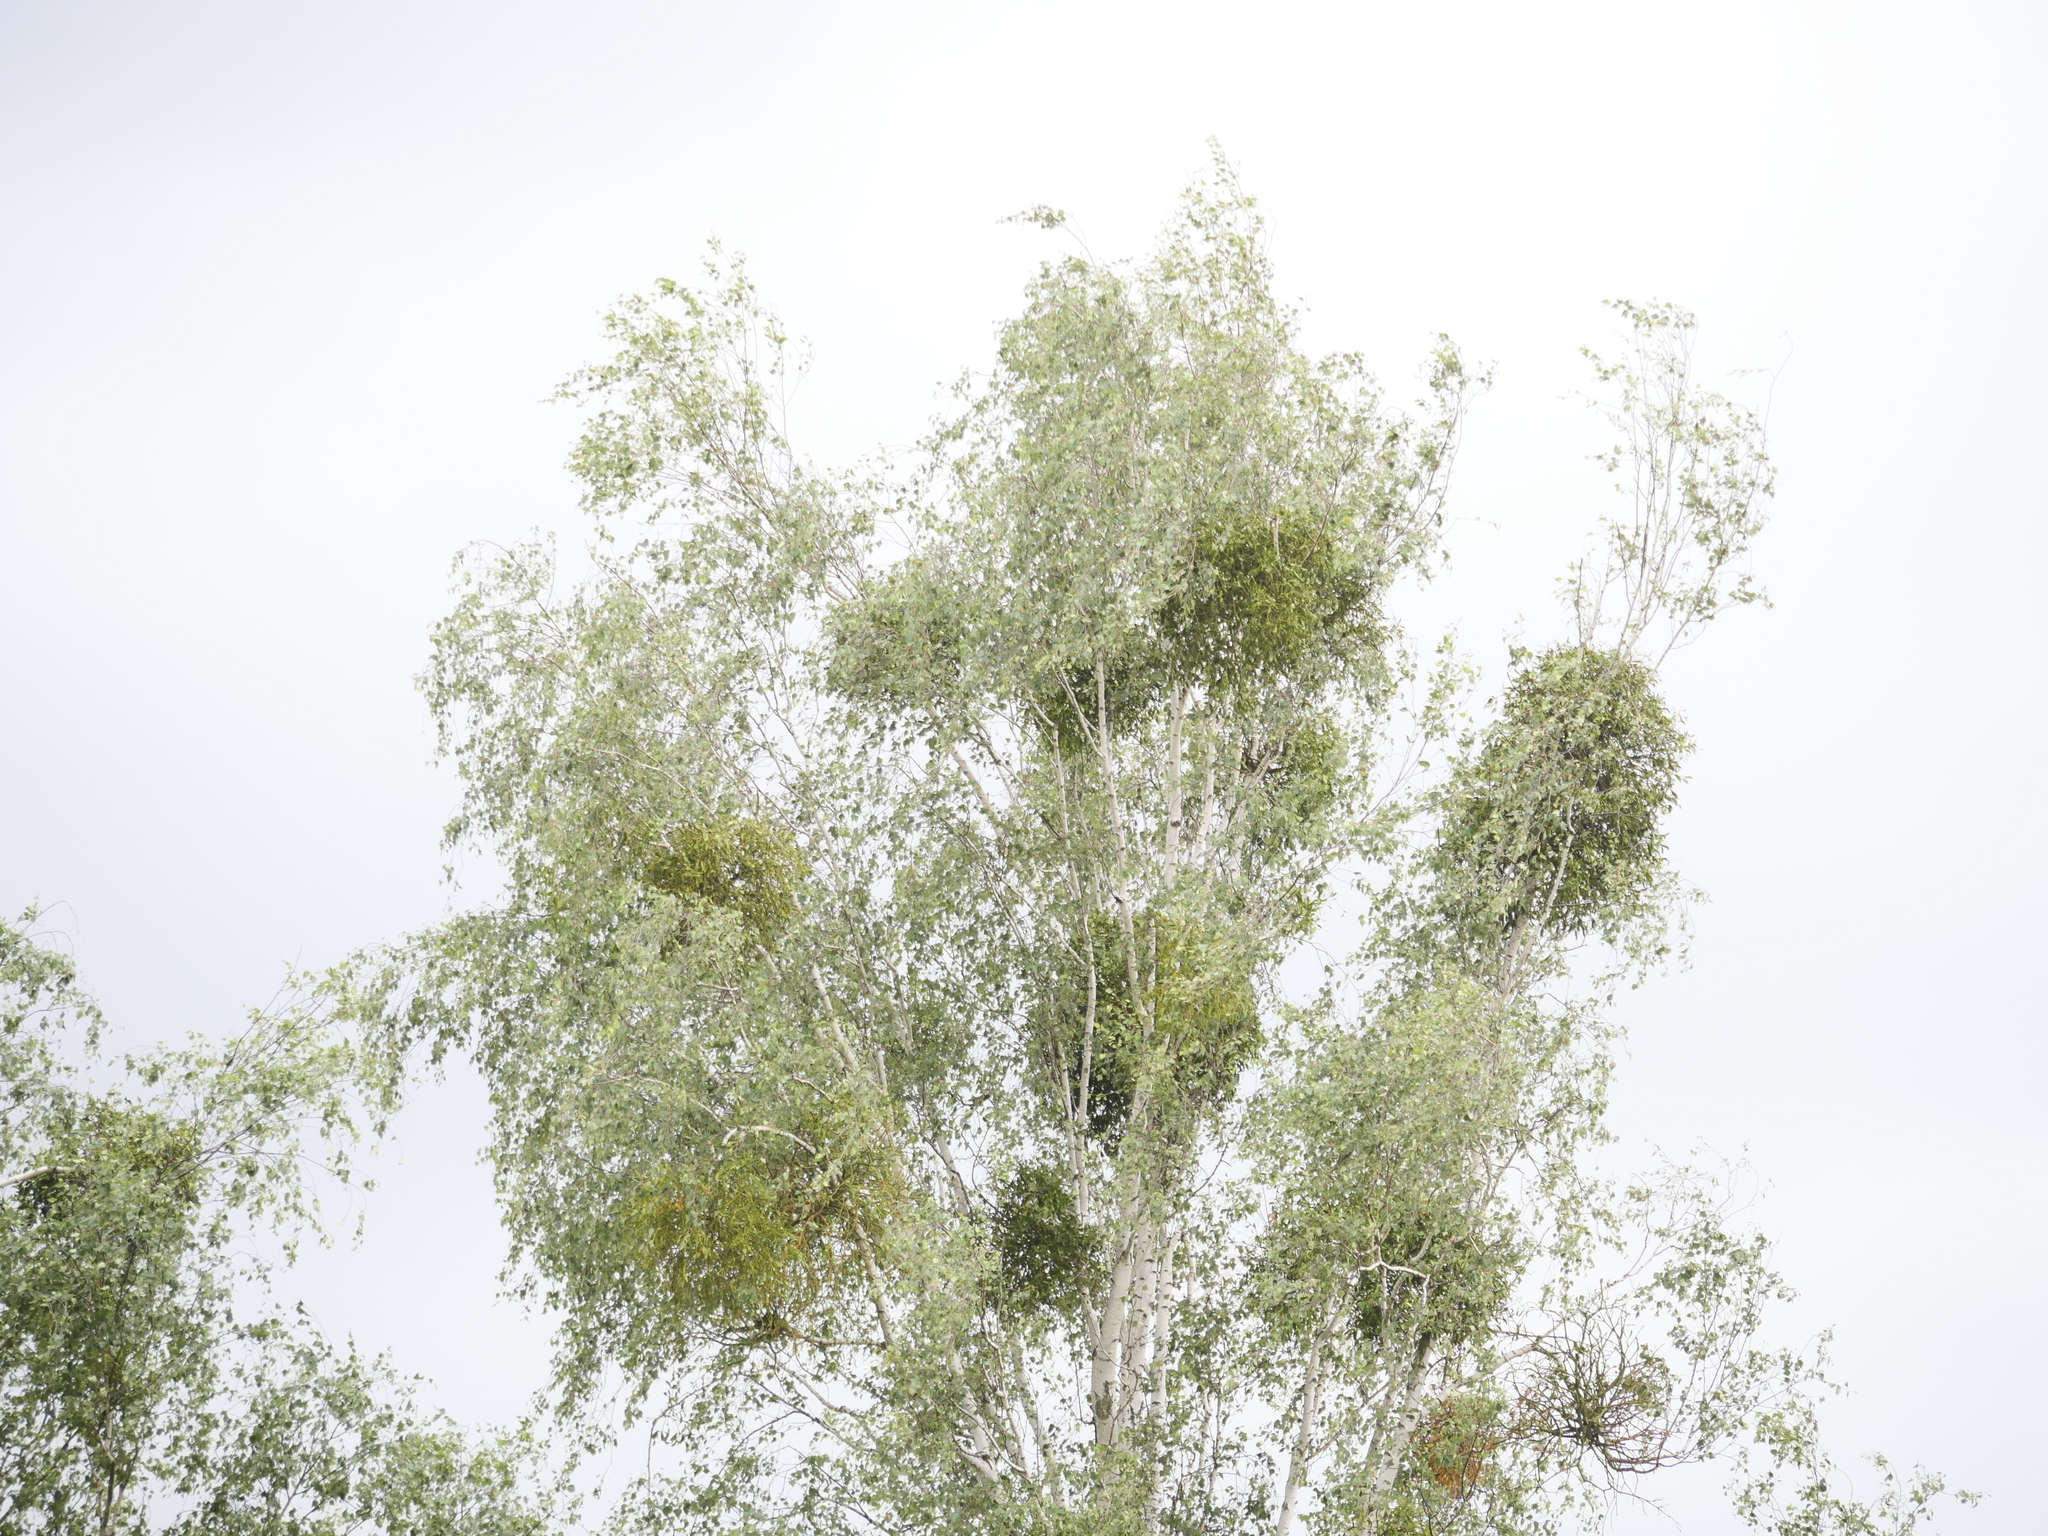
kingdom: Plantae
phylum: Tracheophyta
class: Magnoliopsida
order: Fagales
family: Betulaceae
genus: Betula
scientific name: Betula pendula
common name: Silver birch
